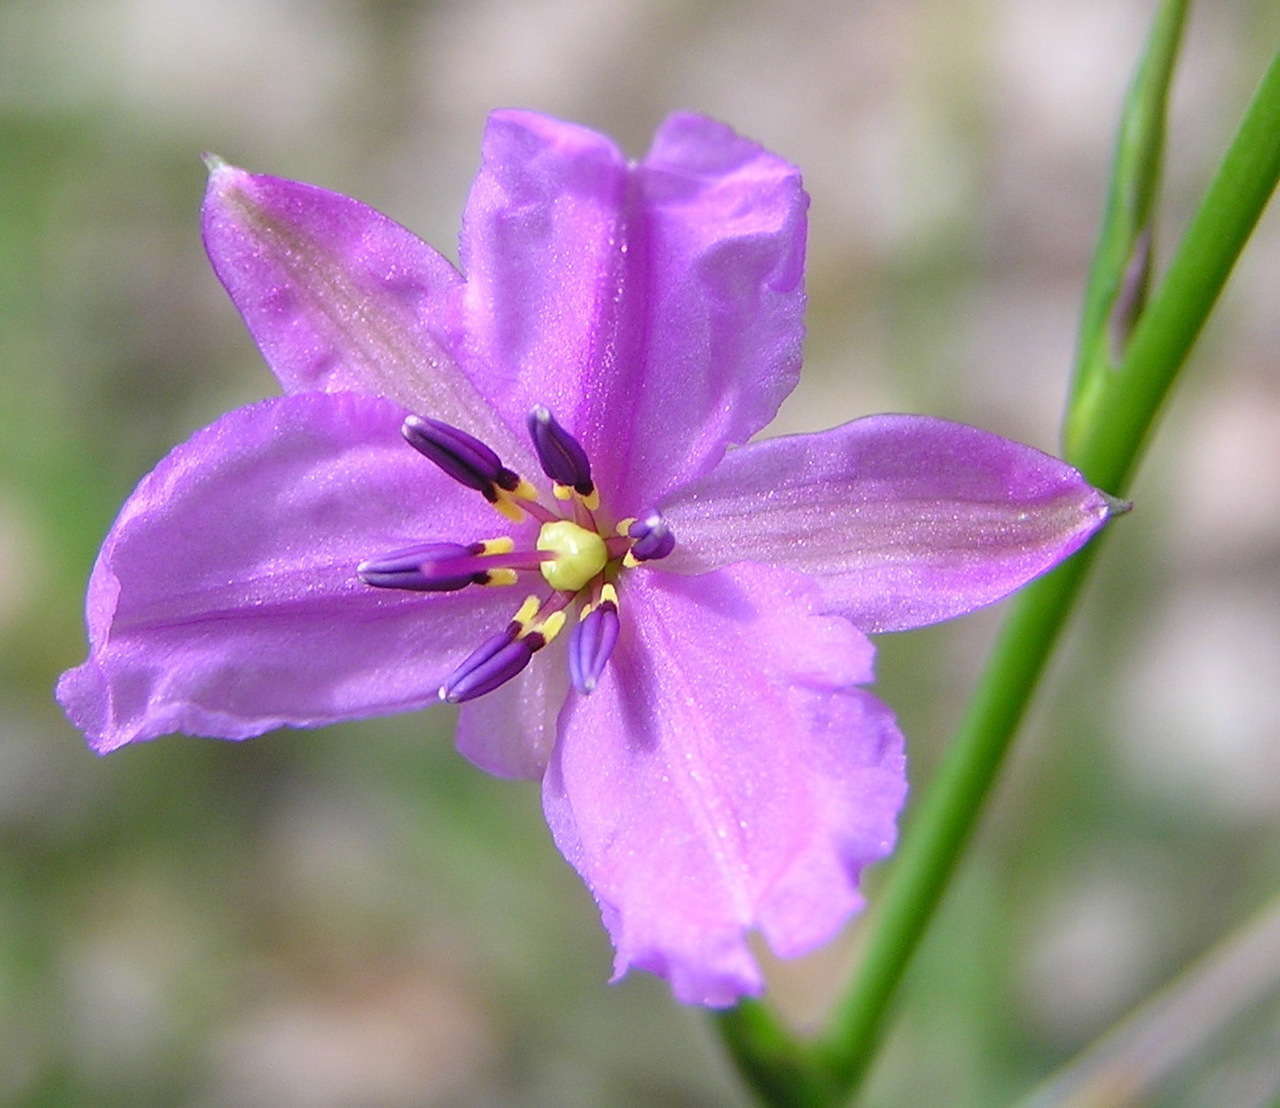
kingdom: Plantae
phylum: Tracheophyta
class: Liliopsida
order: Asparagales
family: Asparagaceae
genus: Arthropodium
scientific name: Arthropodium strictum
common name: Chocolate-lily
